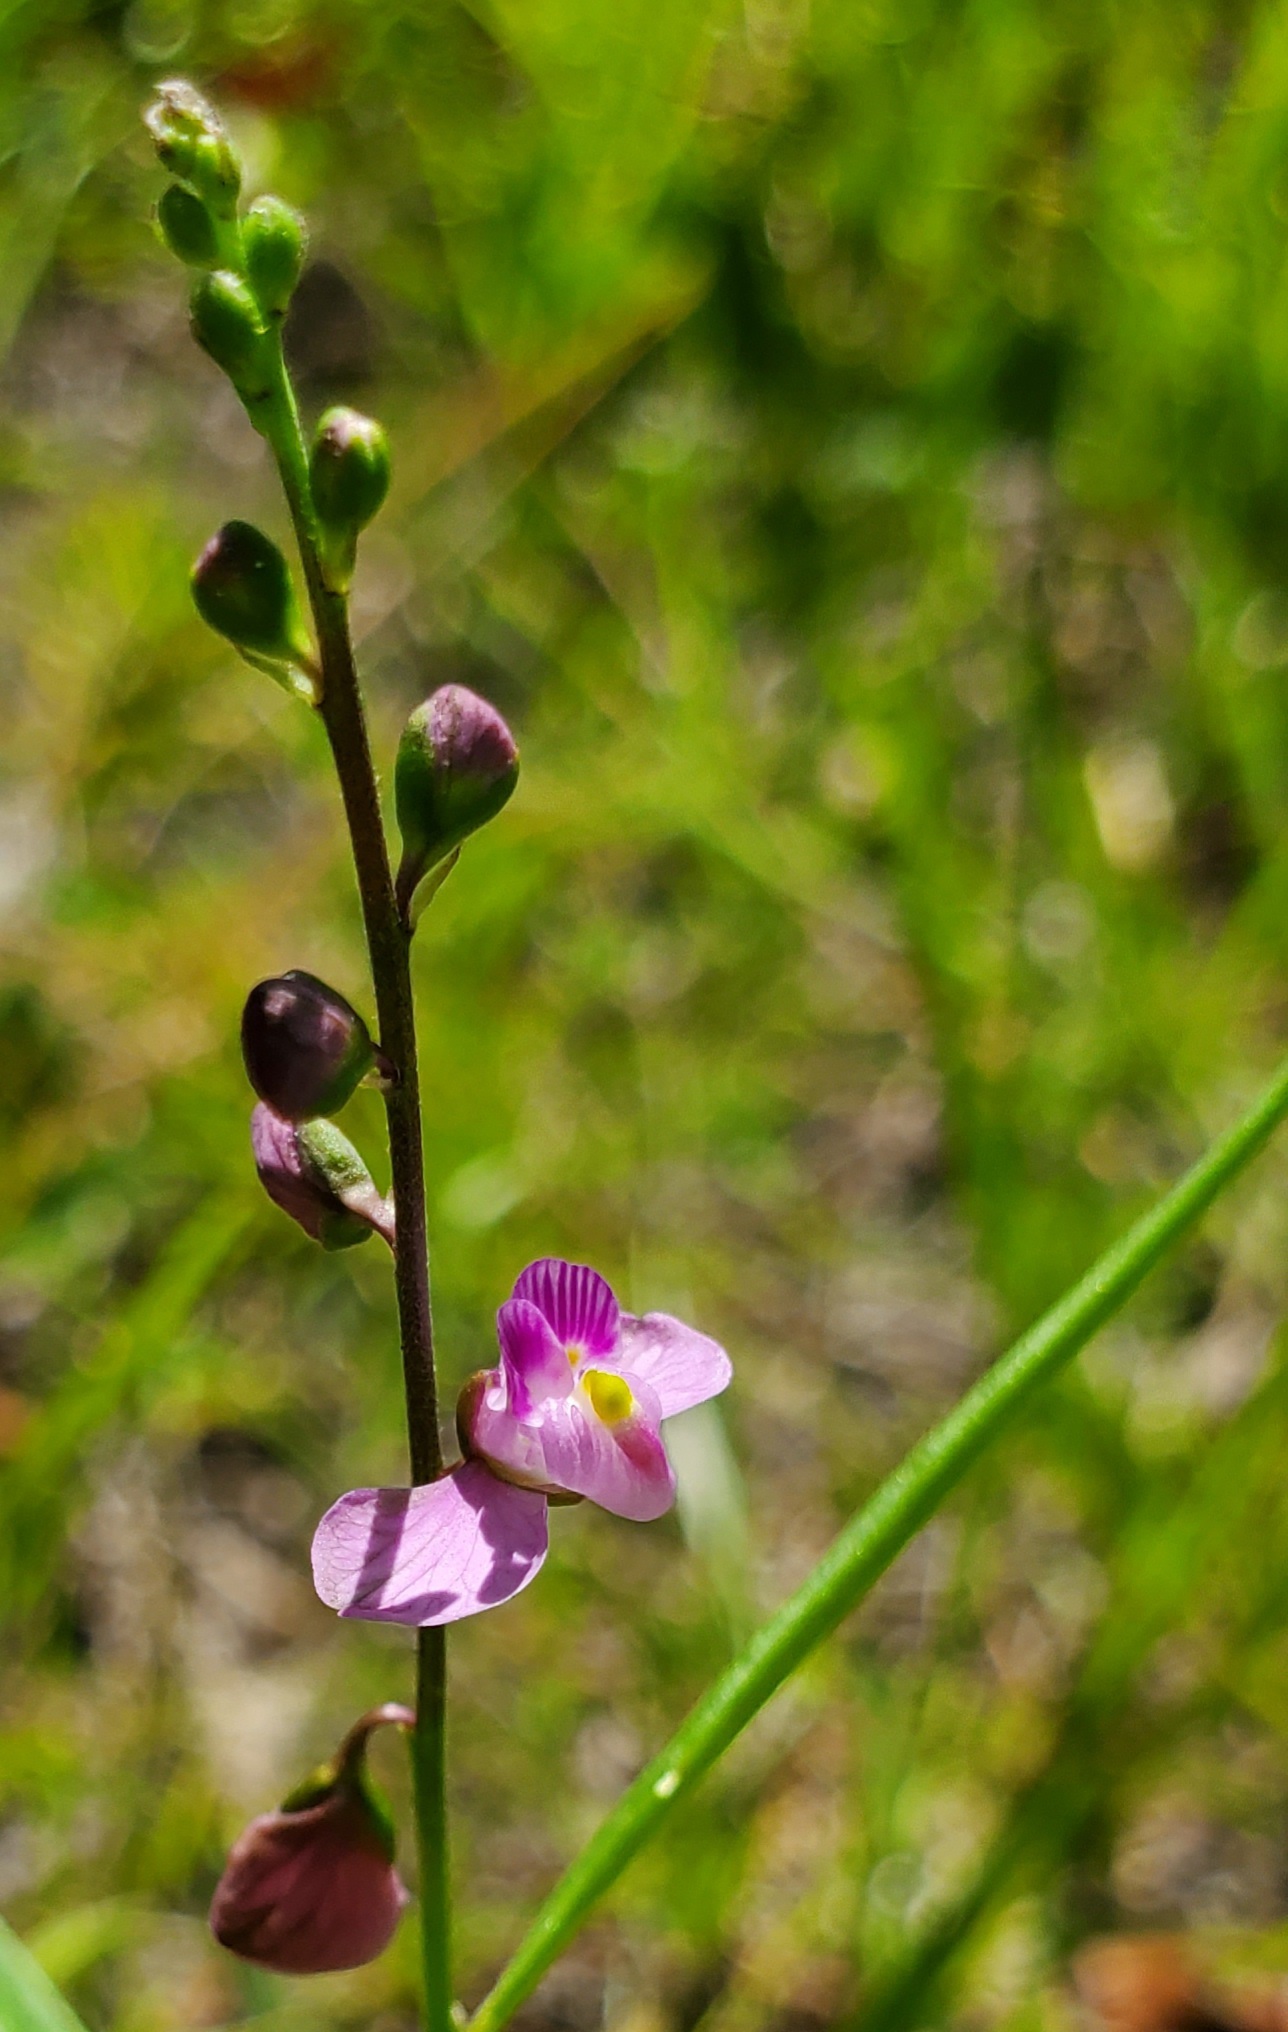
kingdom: Plantae
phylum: Tracheophyta
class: Magnoliopsida
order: Fabales
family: Polygalaceae
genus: Asemeia
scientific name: Asemeia grandiflora
